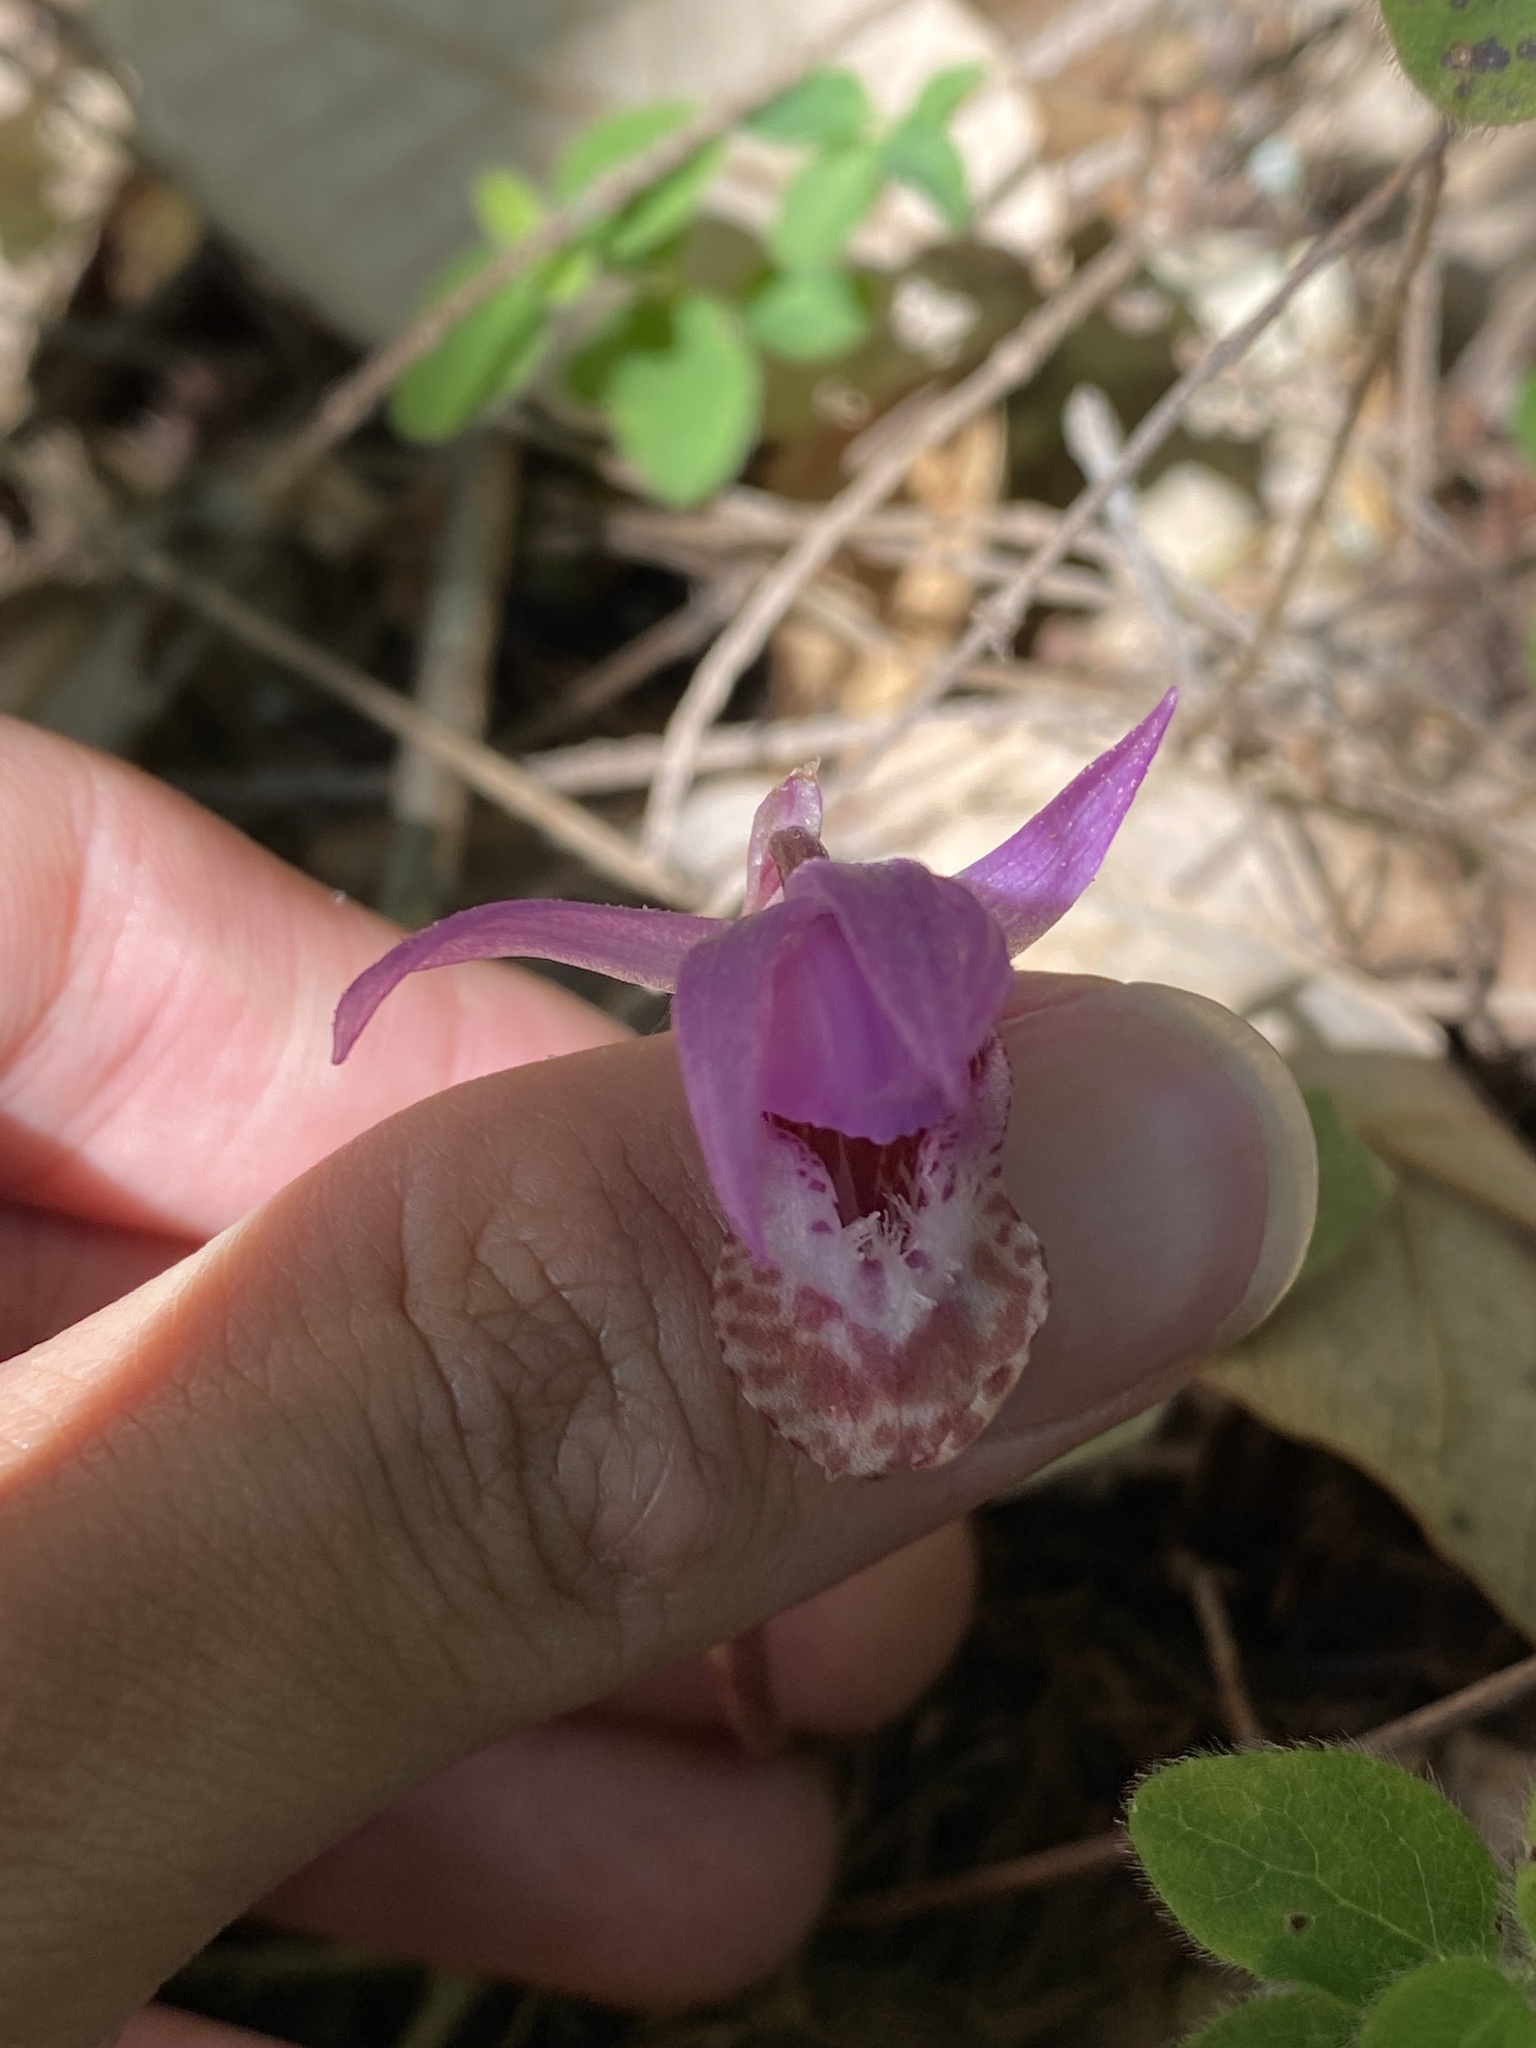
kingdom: Plantae
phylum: Tracheophyta
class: Liliopsida
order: Asparagales
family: Orchidaceae
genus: Calypso
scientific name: Calypso bulbosa
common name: Calypso
